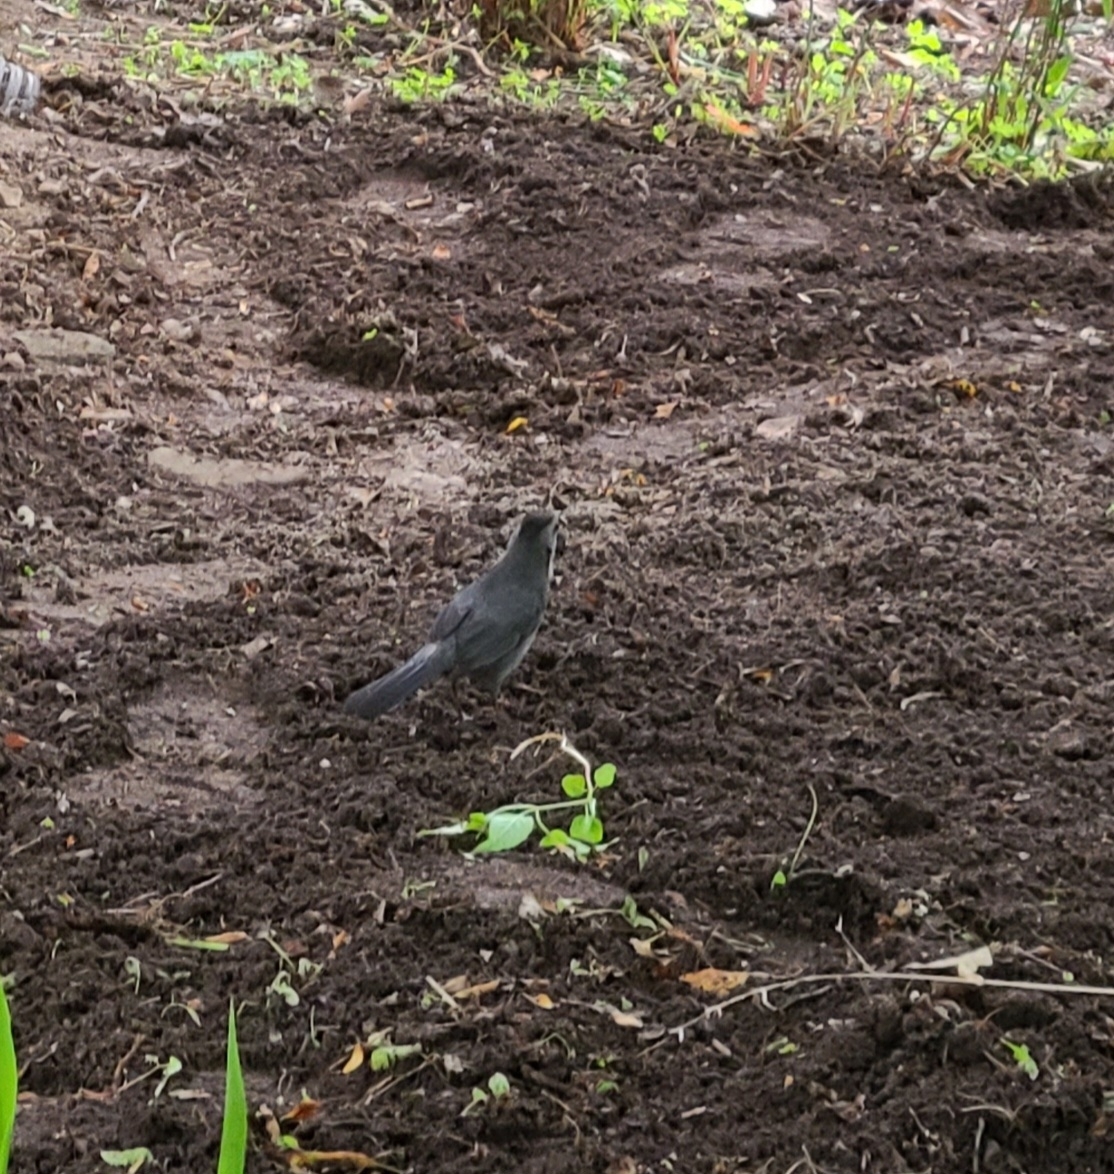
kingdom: Animalia
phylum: Chordata
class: Aves
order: Passeriformes
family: Mimidae
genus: Dumetella
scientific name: Dumetella carolinensis
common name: Gray catbird
